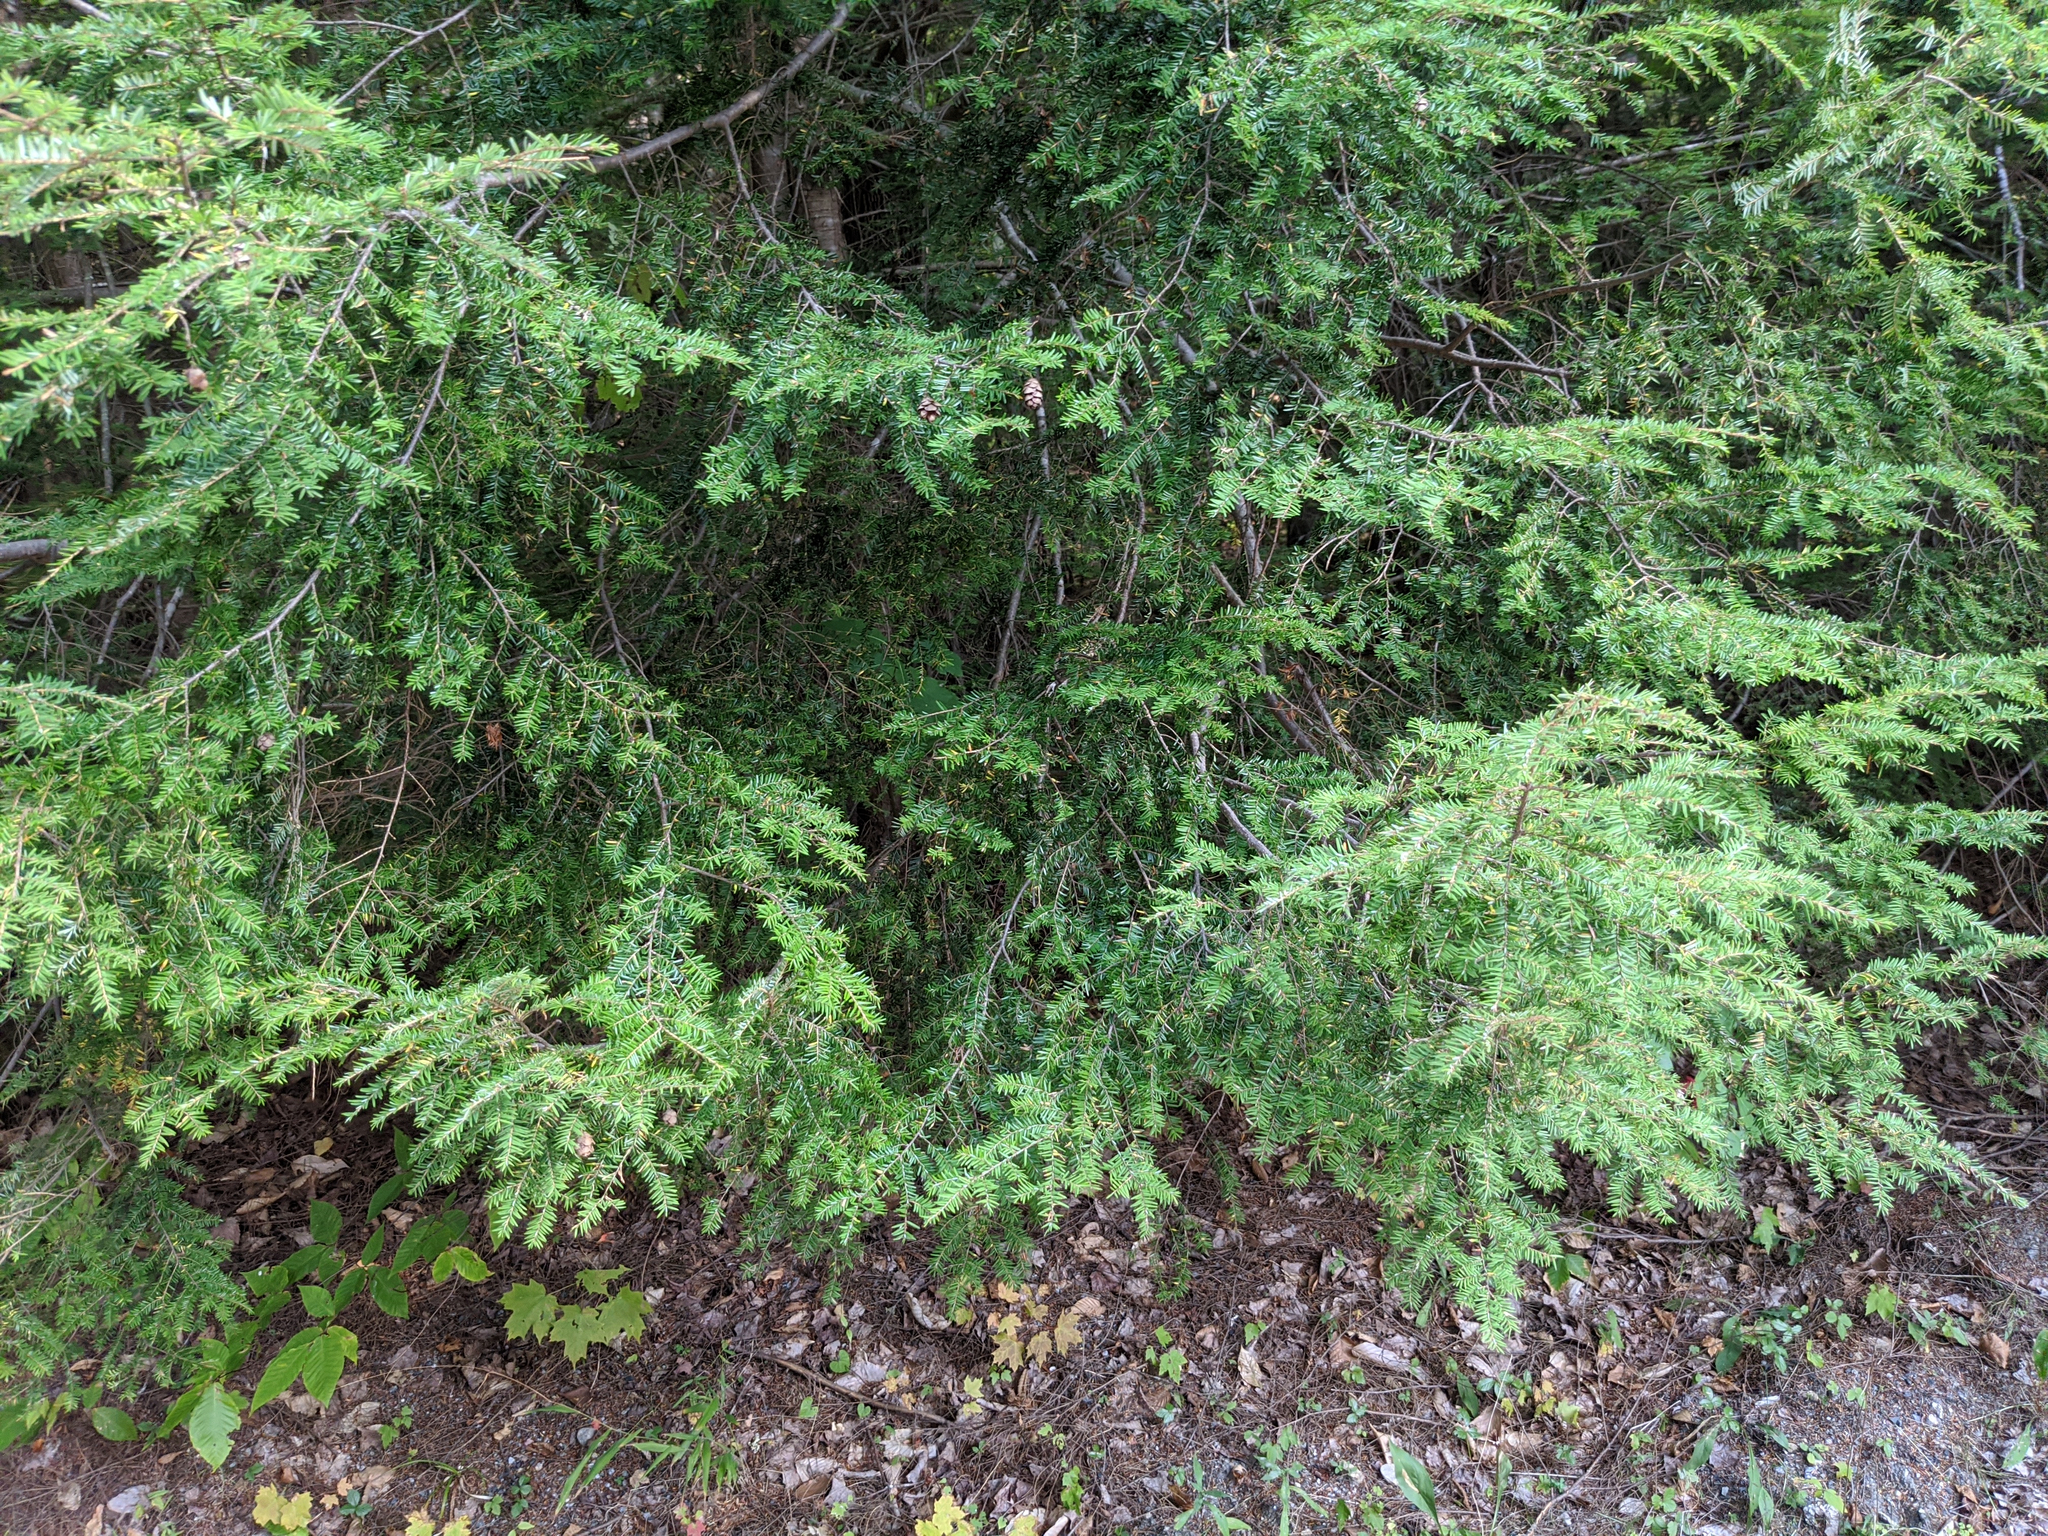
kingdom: Plantae
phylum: Tracheophyta
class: Pinopsida
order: Pinales
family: Pinaceae
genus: Tsuga
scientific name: Tsuga canadensis
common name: Eastern hemlock
